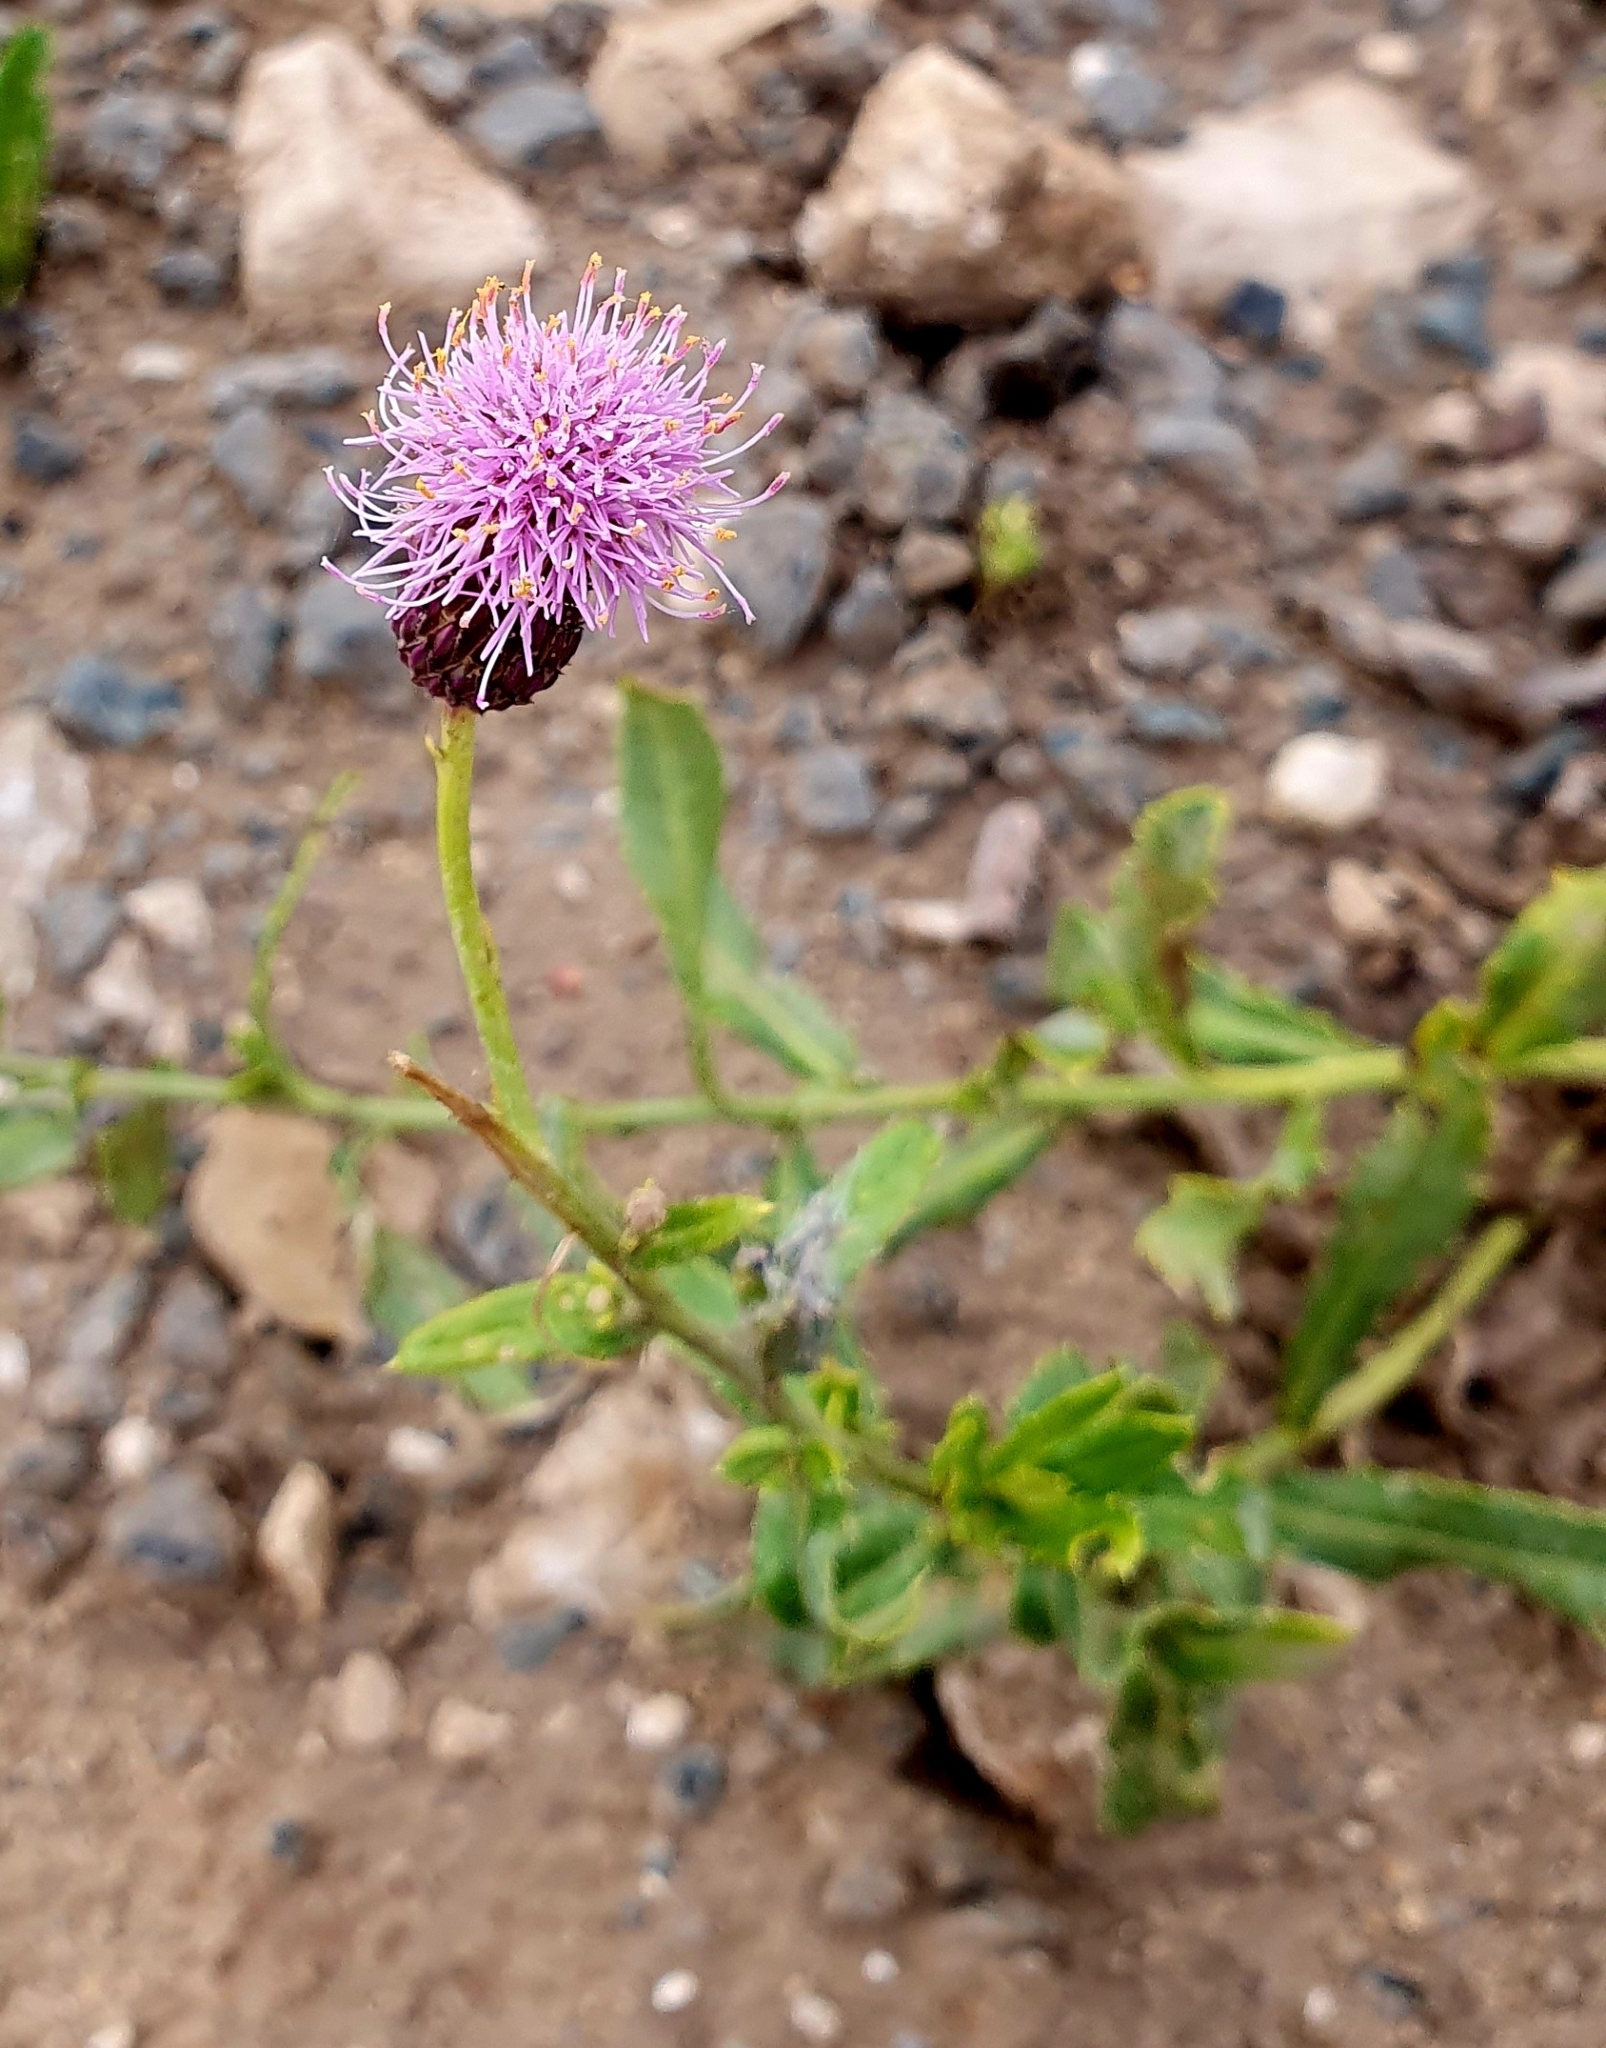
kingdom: Plantae
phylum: Tracheophyta
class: Magnoliopsida
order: Asterales
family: Asteraceae
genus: Cirsium
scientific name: Cirsium arvense
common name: Creeping thistle
